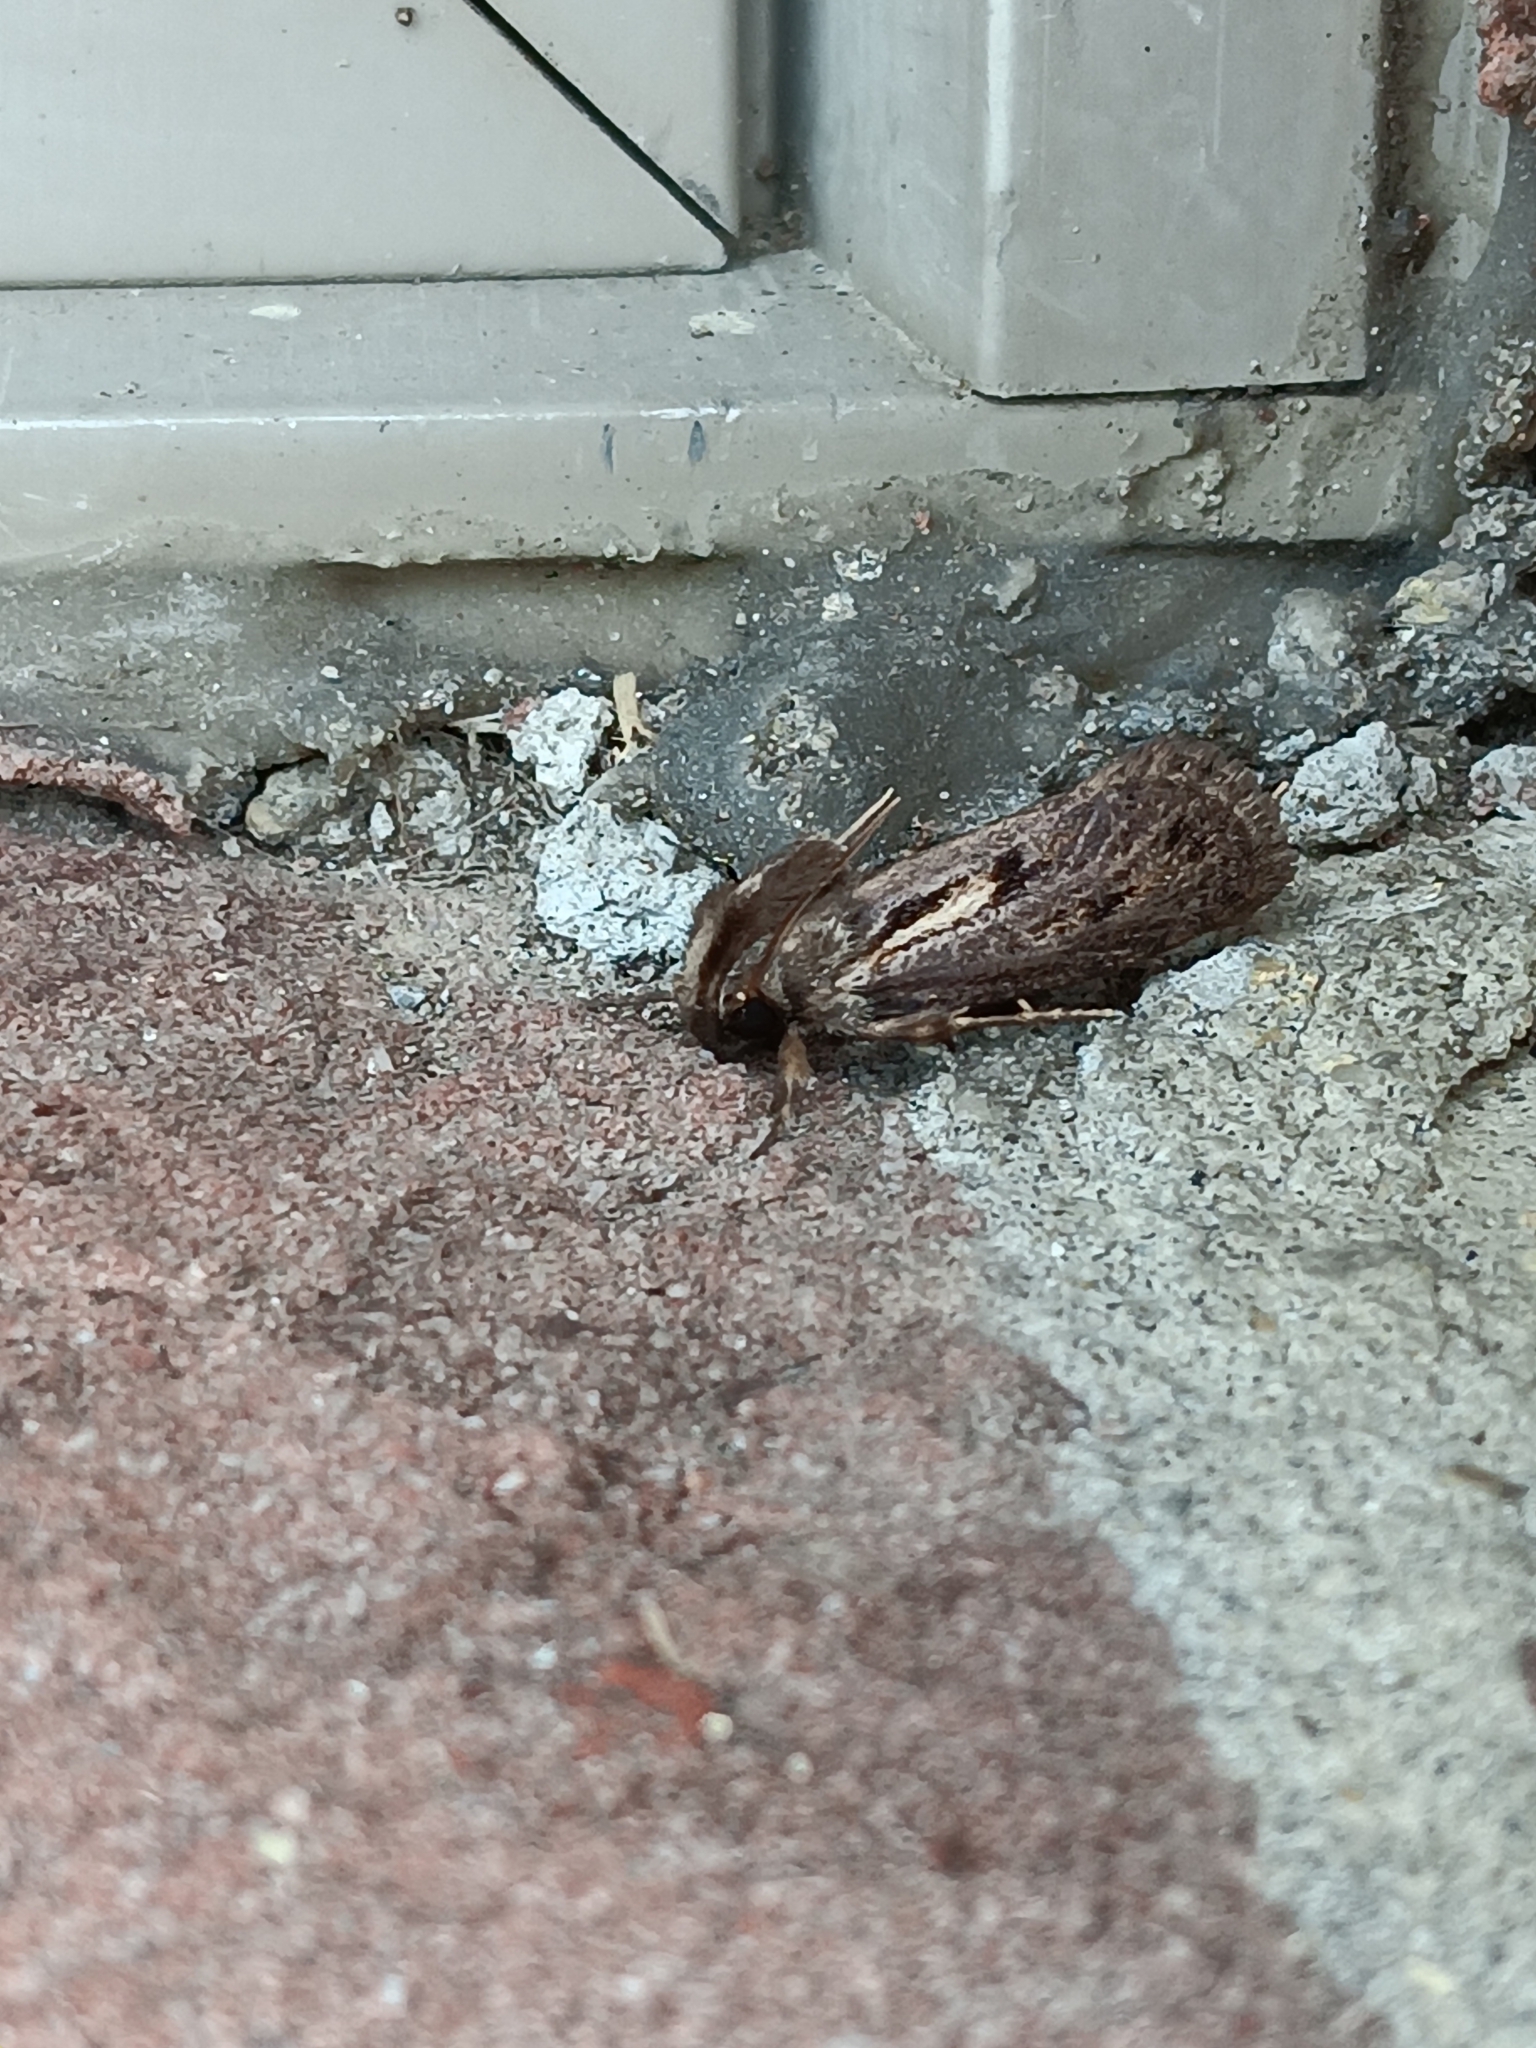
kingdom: Animalia
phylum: Arthropoda
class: Insecta
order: Lepidoptera
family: Tineidae
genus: Acrolophus
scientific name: Acrolophus popeanella
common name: Clemens' grass tubeworm moth
